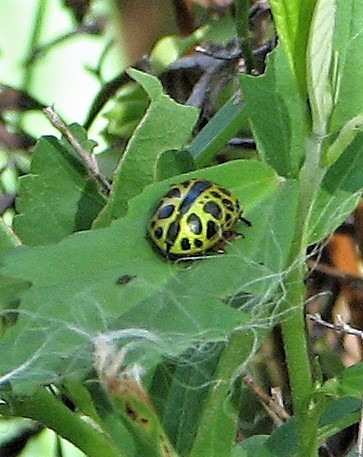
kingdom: Animalia
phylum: Arthropoda
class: Insecta
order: Coleoptera
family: Chrysomelidae
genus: Calligrapha
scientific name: Calligrapha polyspila
